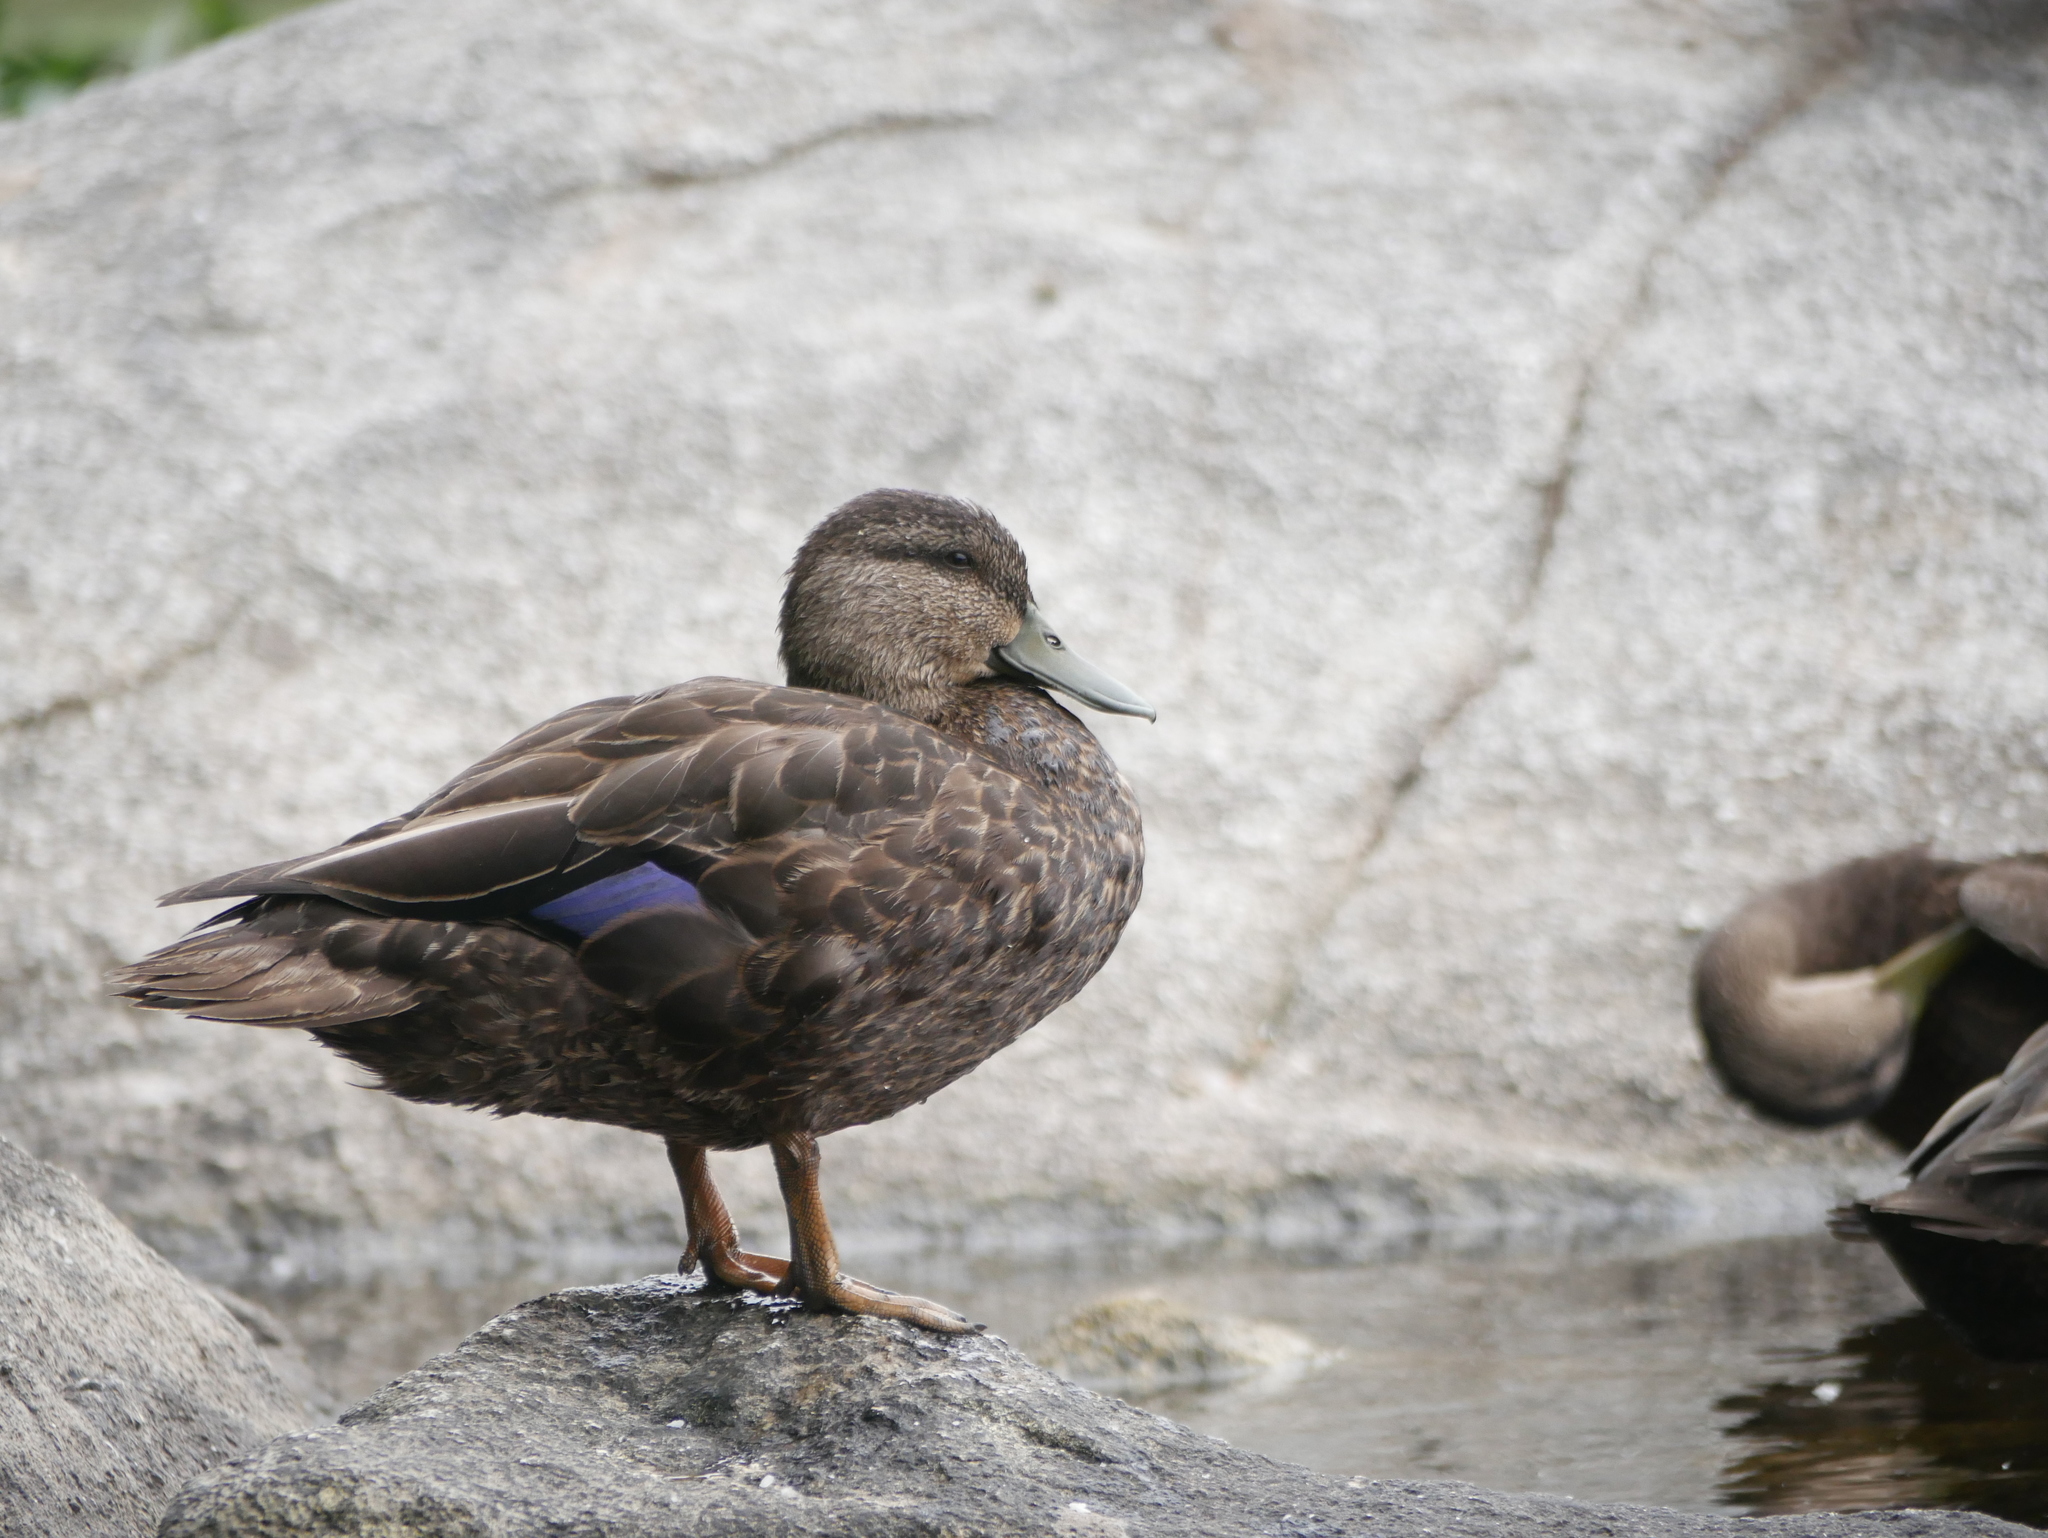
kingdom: Animalia
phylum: Chordata
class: Aves
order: Anseriformes
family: Anatidae
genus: Anas
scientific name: Anas rubripes
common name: American black duck
